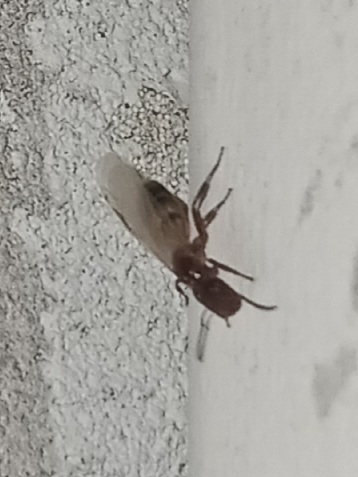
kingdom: Animalia
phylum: Arthropoda
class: Insecta
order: Hymenoptera
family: Formicidae
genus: Colobopsis
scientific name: Colobopsis impressa
